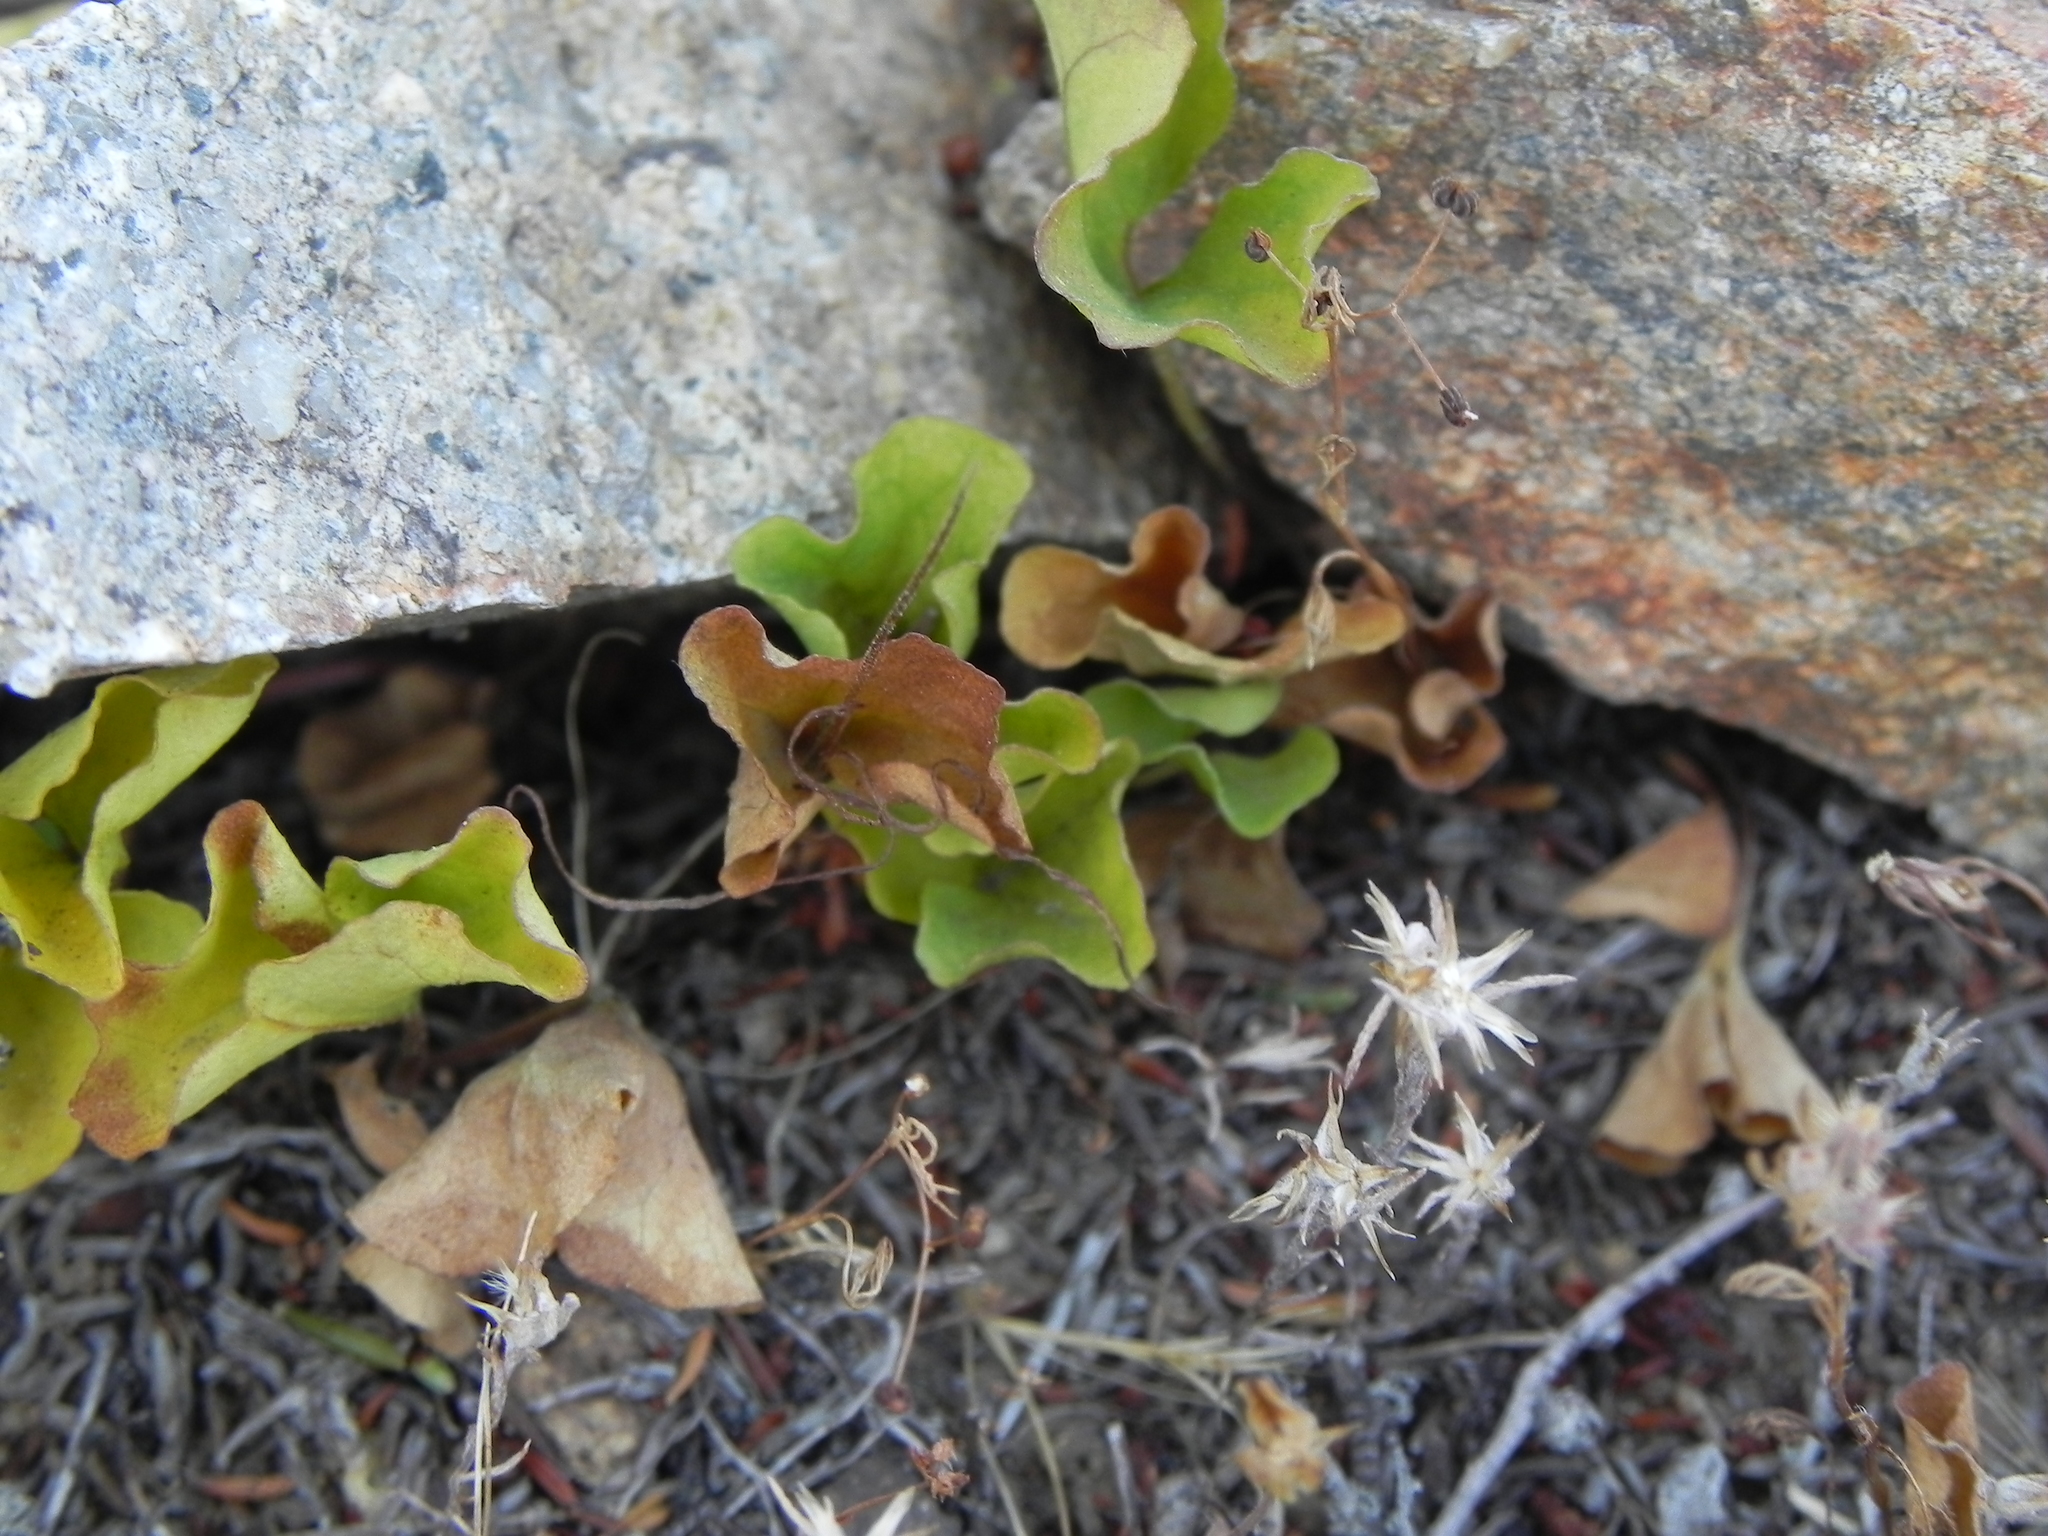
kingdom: Plantae
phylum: Tracheophyta
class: Magnoliopsida
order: Solanales
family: Convolvulaceae
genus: Dichondra
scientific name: Dichondra occidentalis
